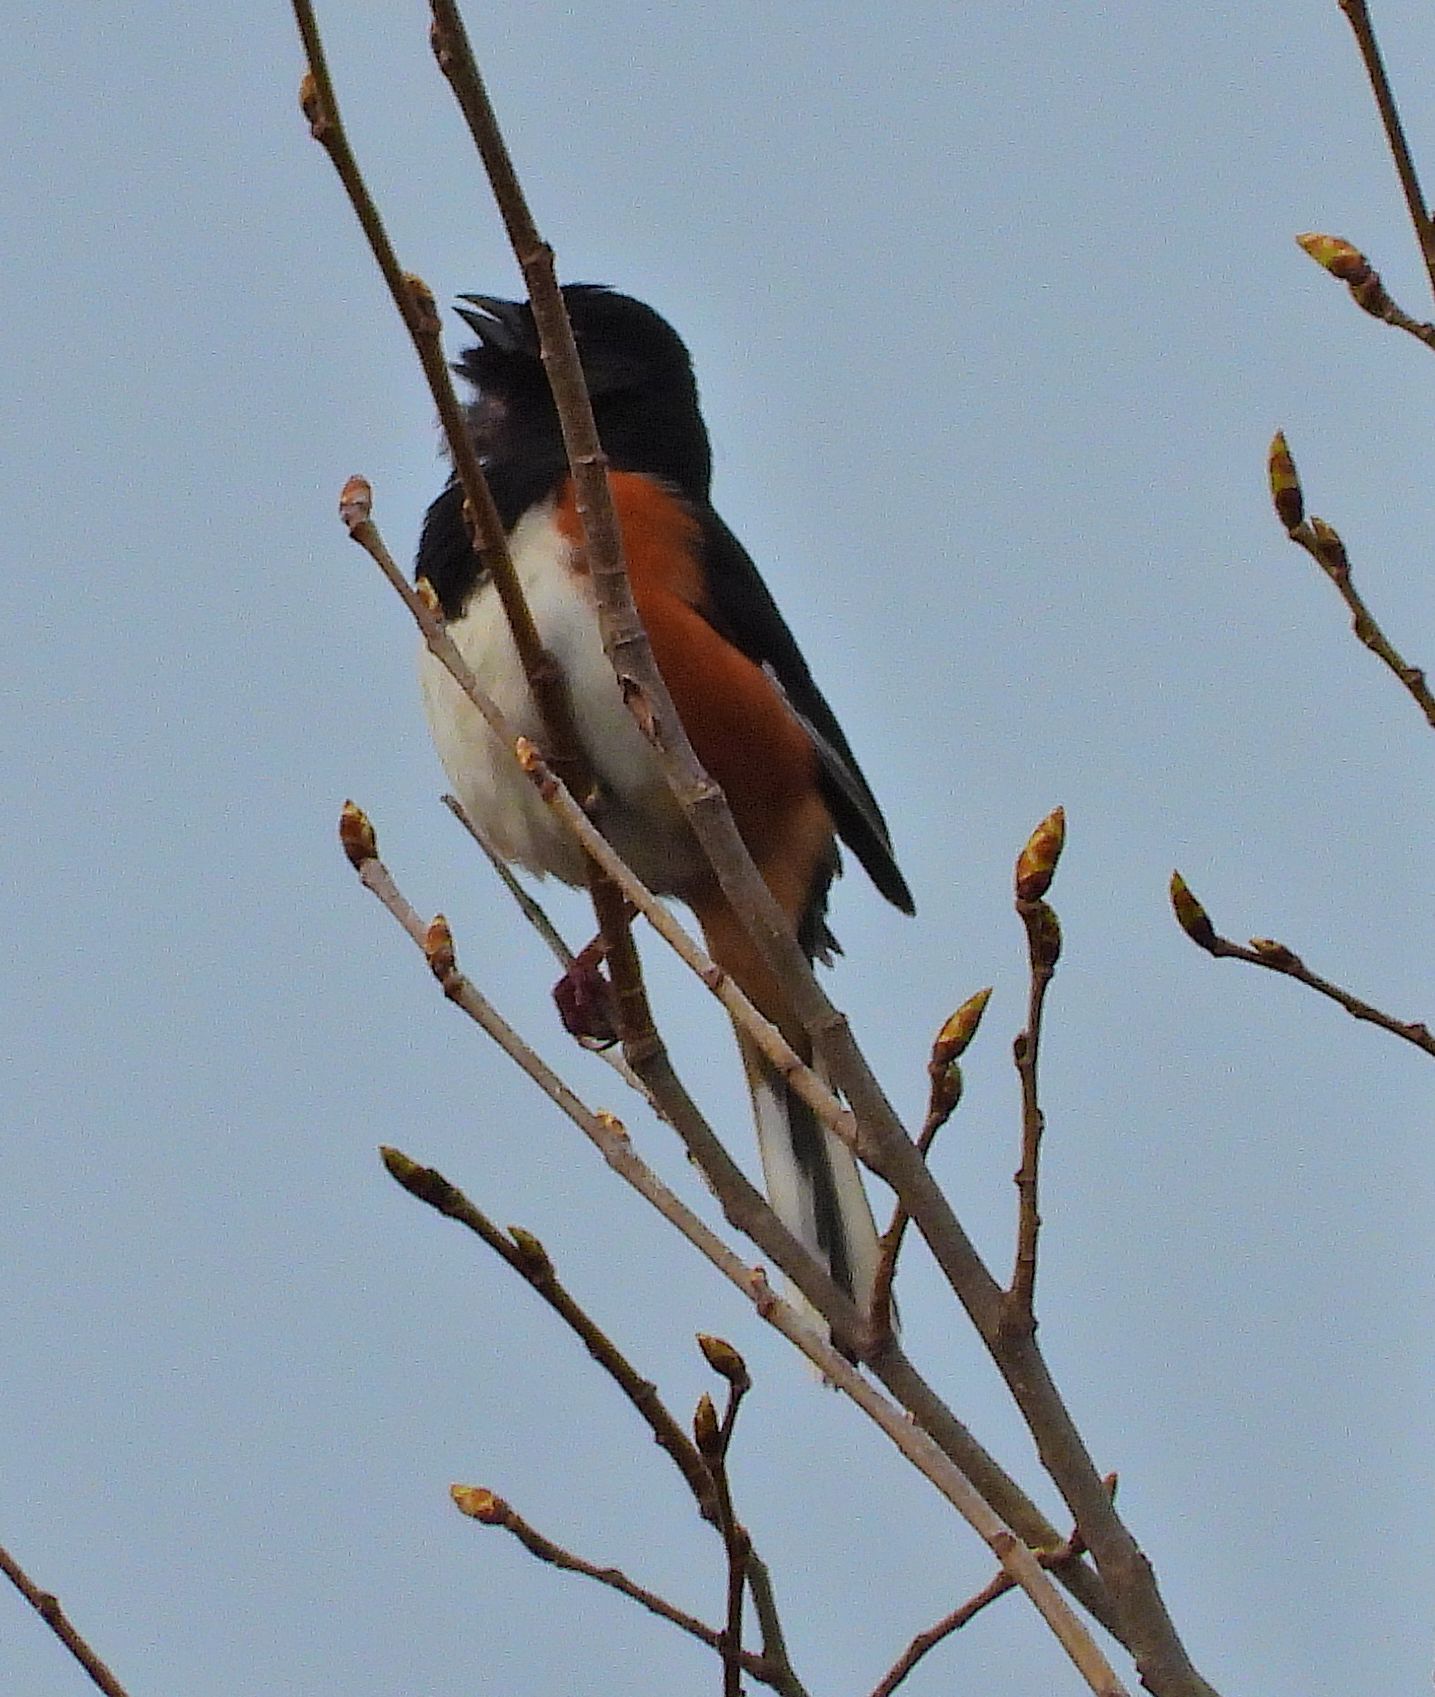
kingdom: Animalia
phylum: Chordata
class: Aves
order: Passeriformes
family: Passerellidae
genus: Pipilo
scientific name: Pipilo erythrophthalmus
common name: Eastern towhee
